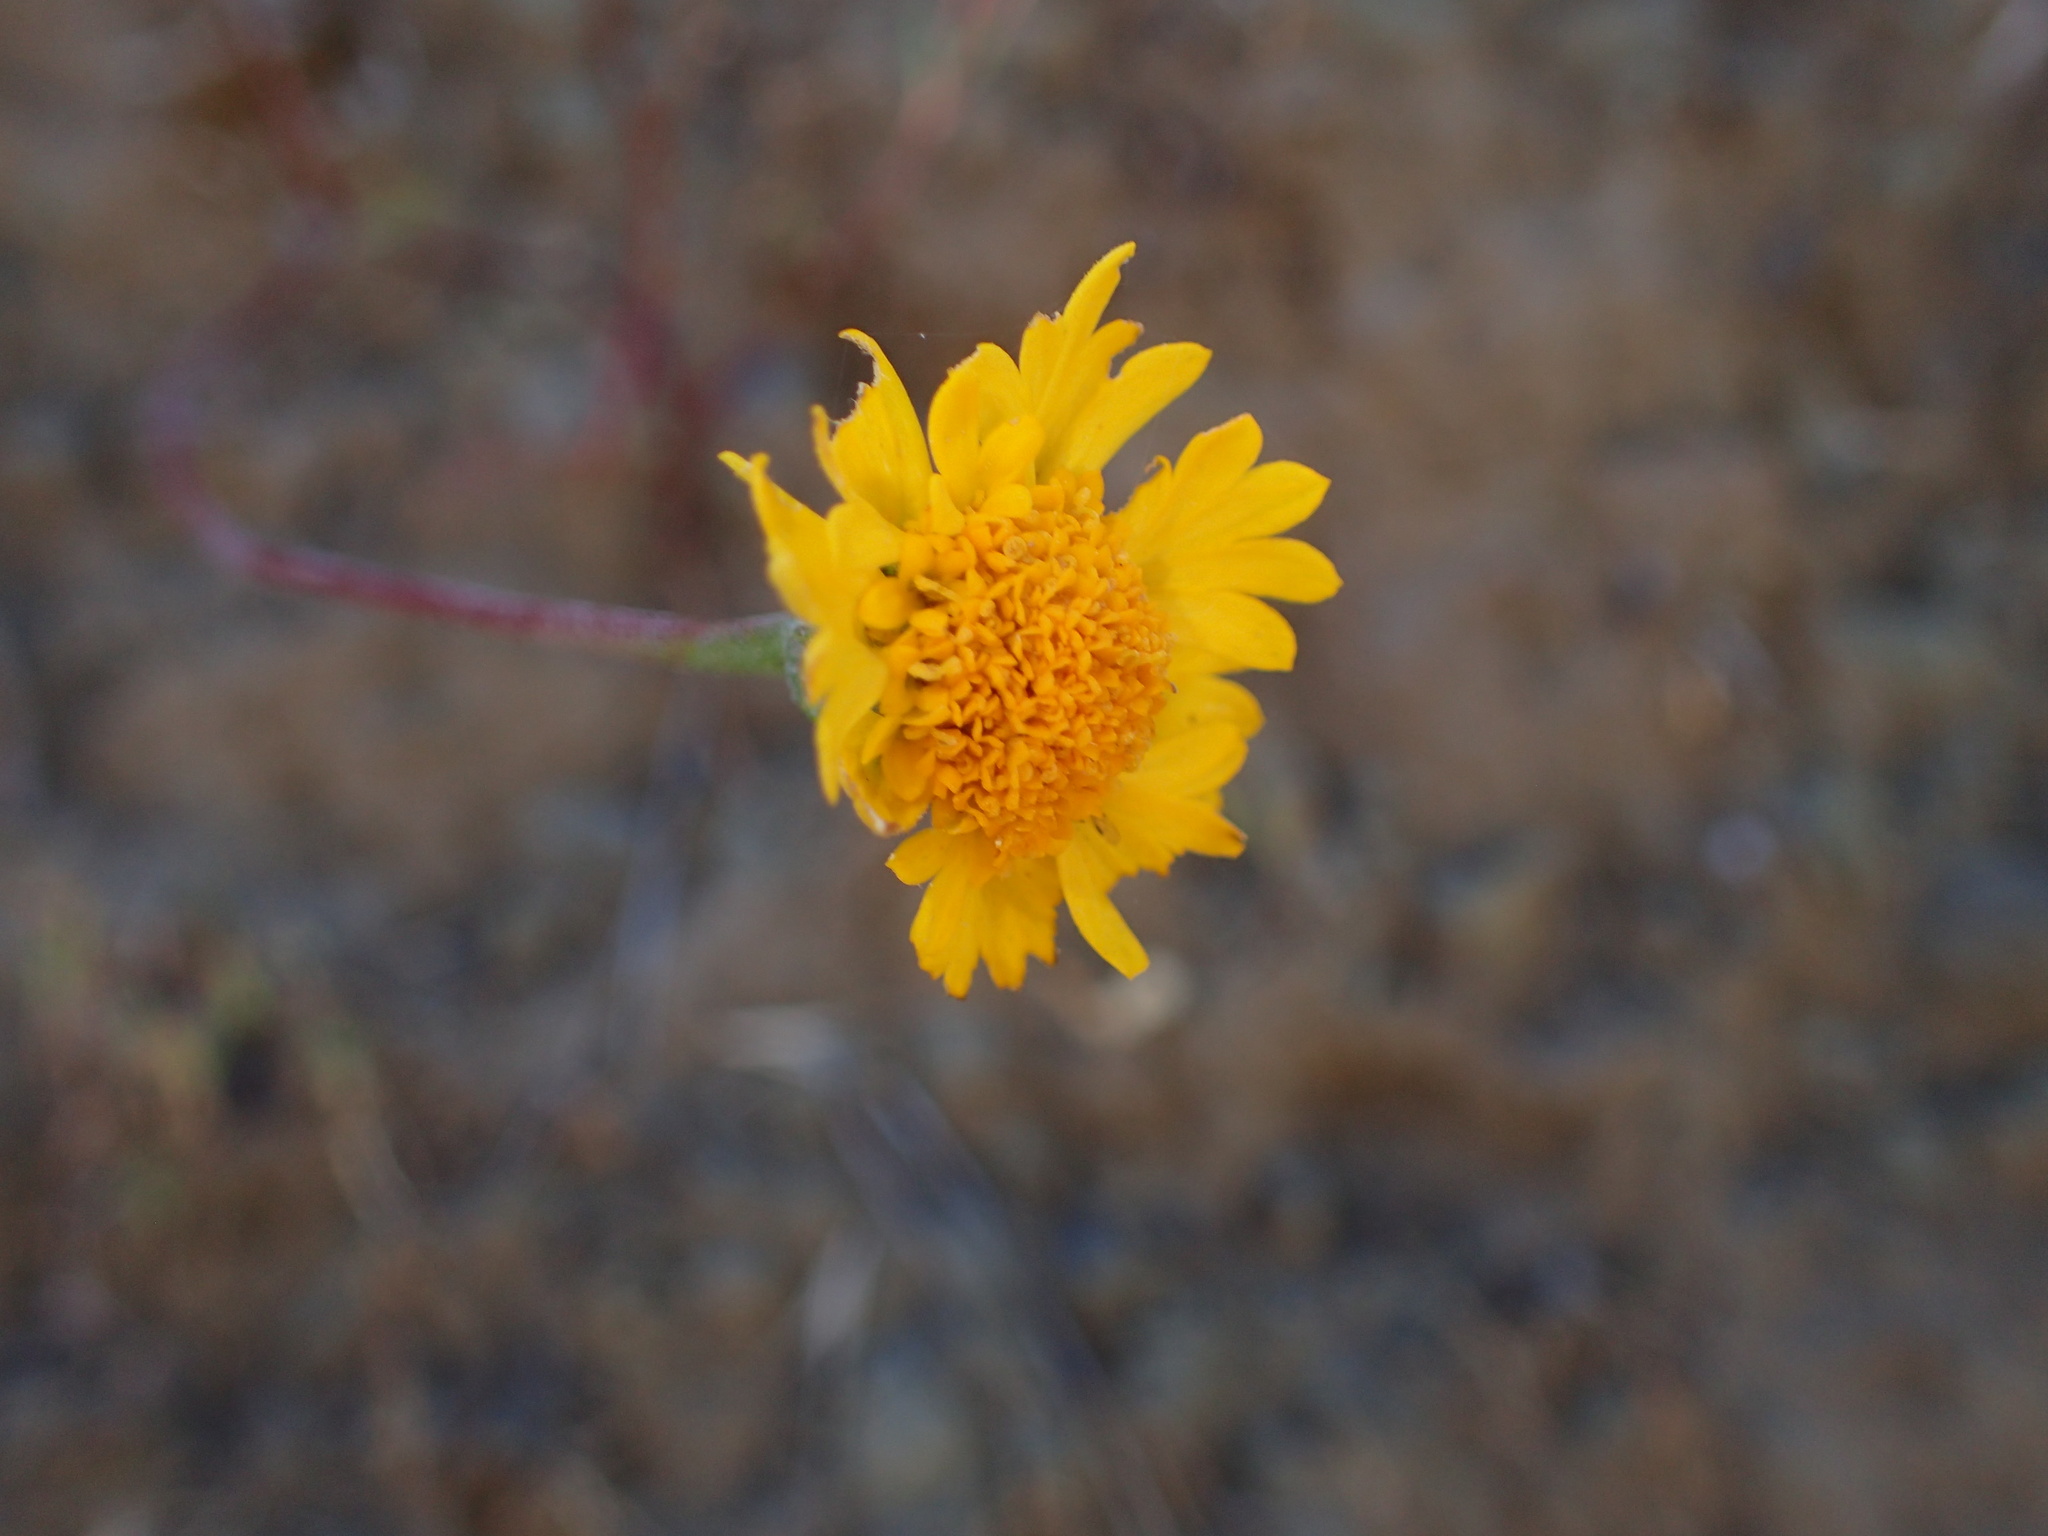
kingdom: Plantae
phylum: Tracheophyta
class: Magnoliopsida
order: Asterales
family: Asteraceae
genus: Chaenactis
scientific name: Chaenactis glabriuscula
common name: Yellow pincushion
